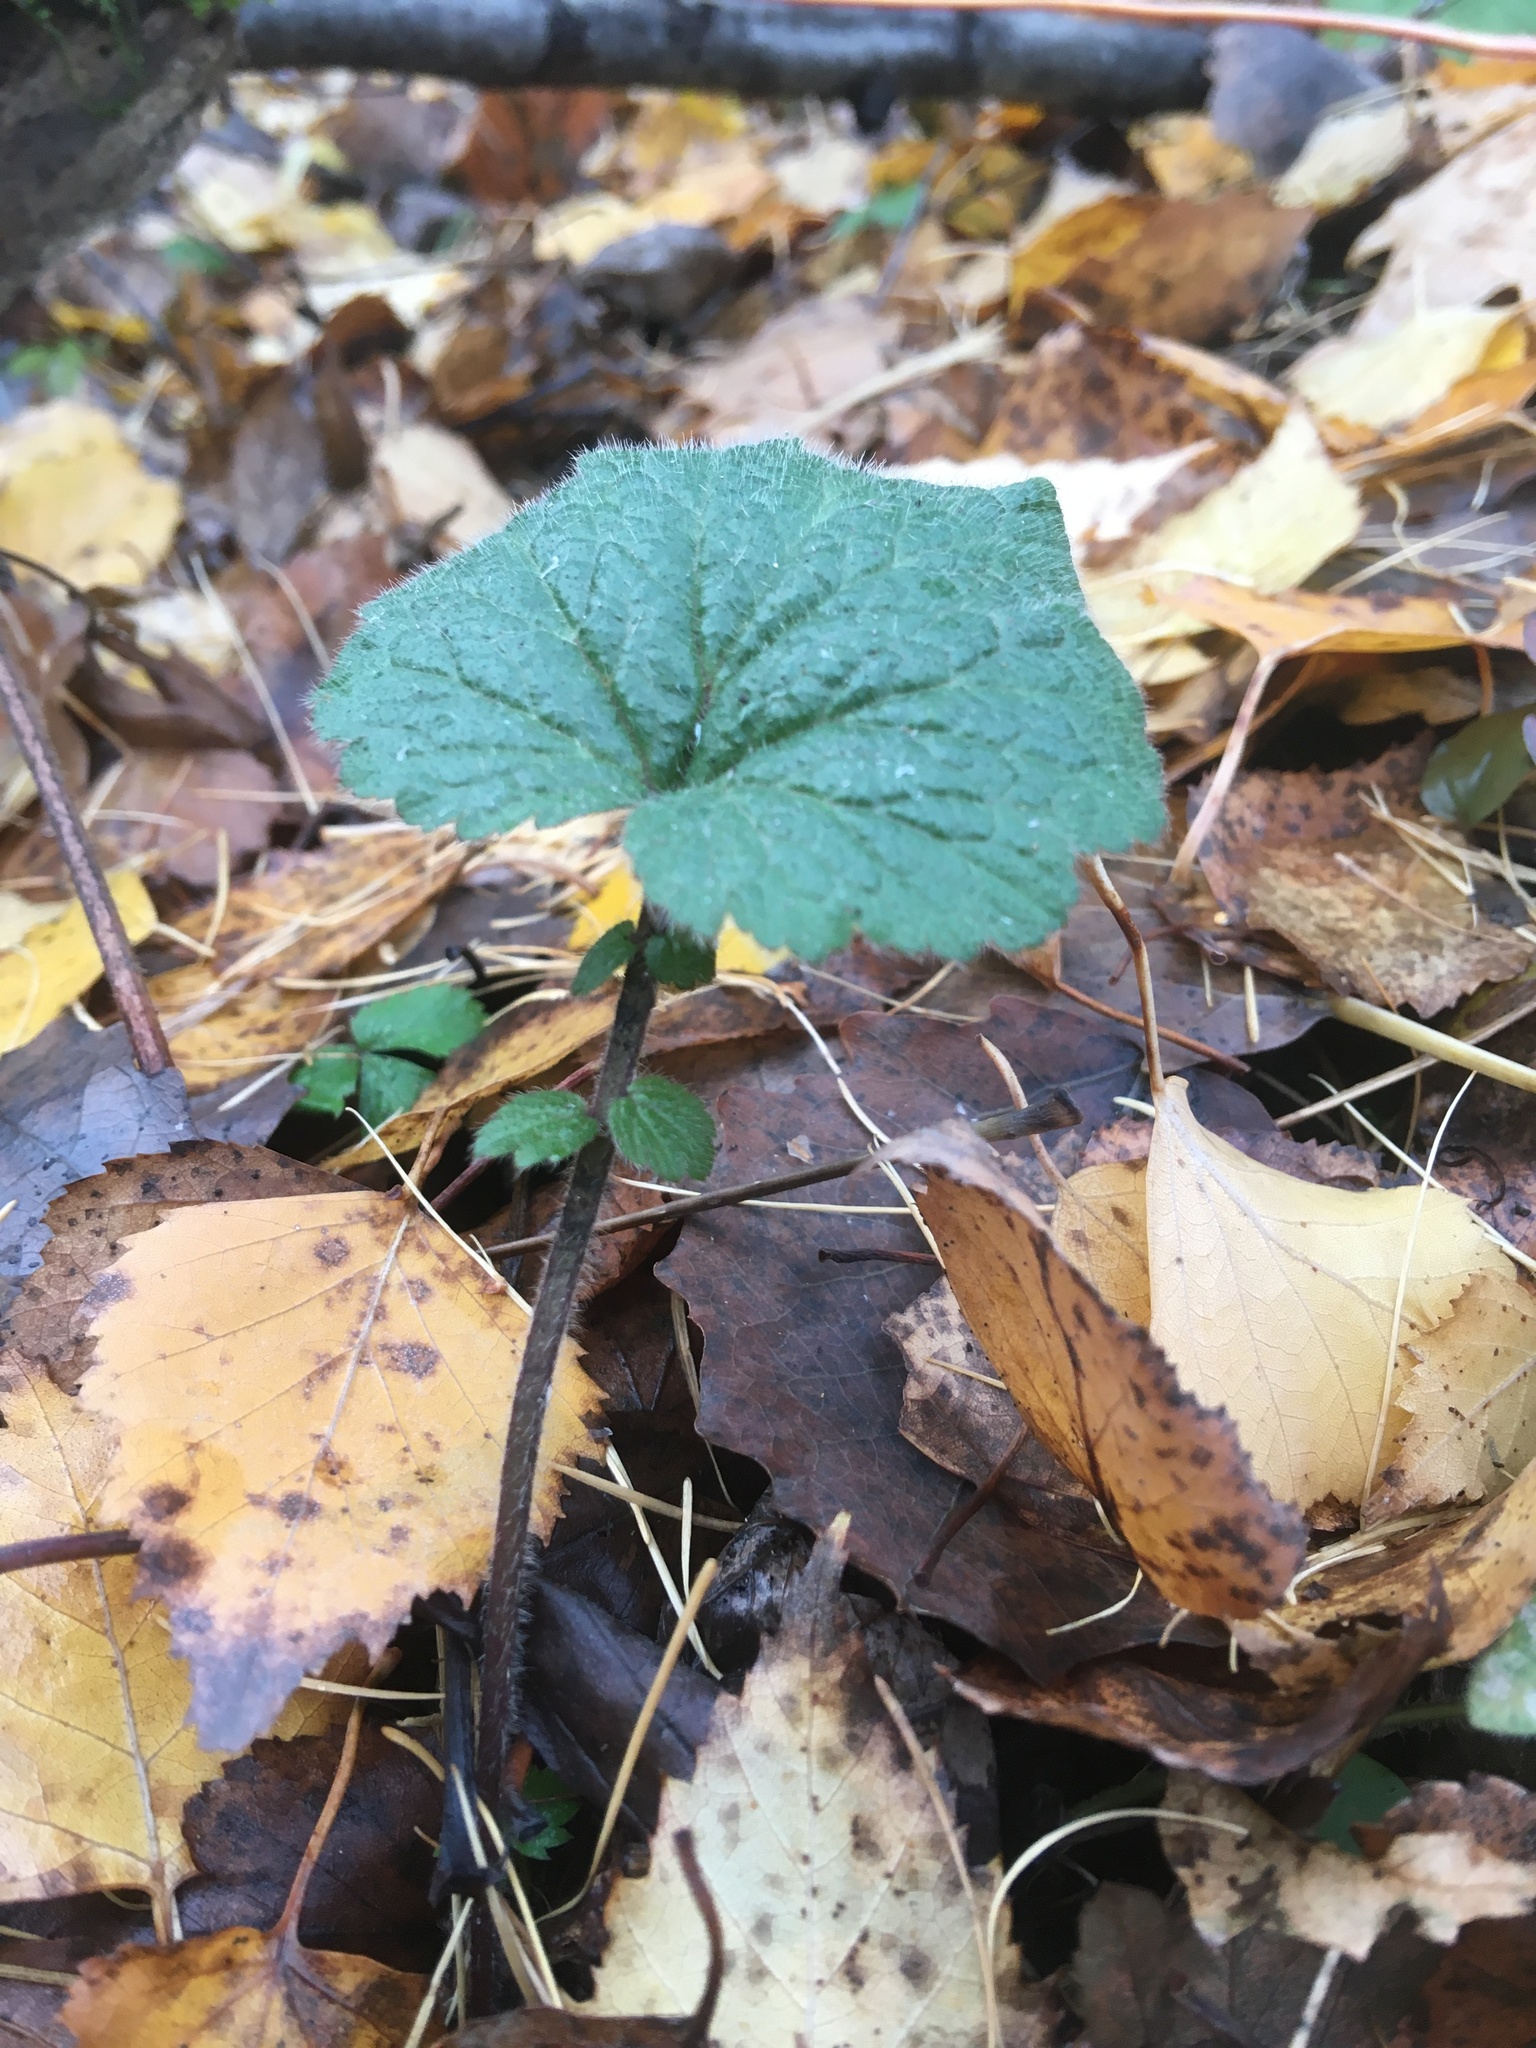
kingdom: Plantae
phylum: Tracheophyta
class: Magnoliopsida
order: Rosales
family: Rosaceae
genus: Geum
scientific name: Geum
